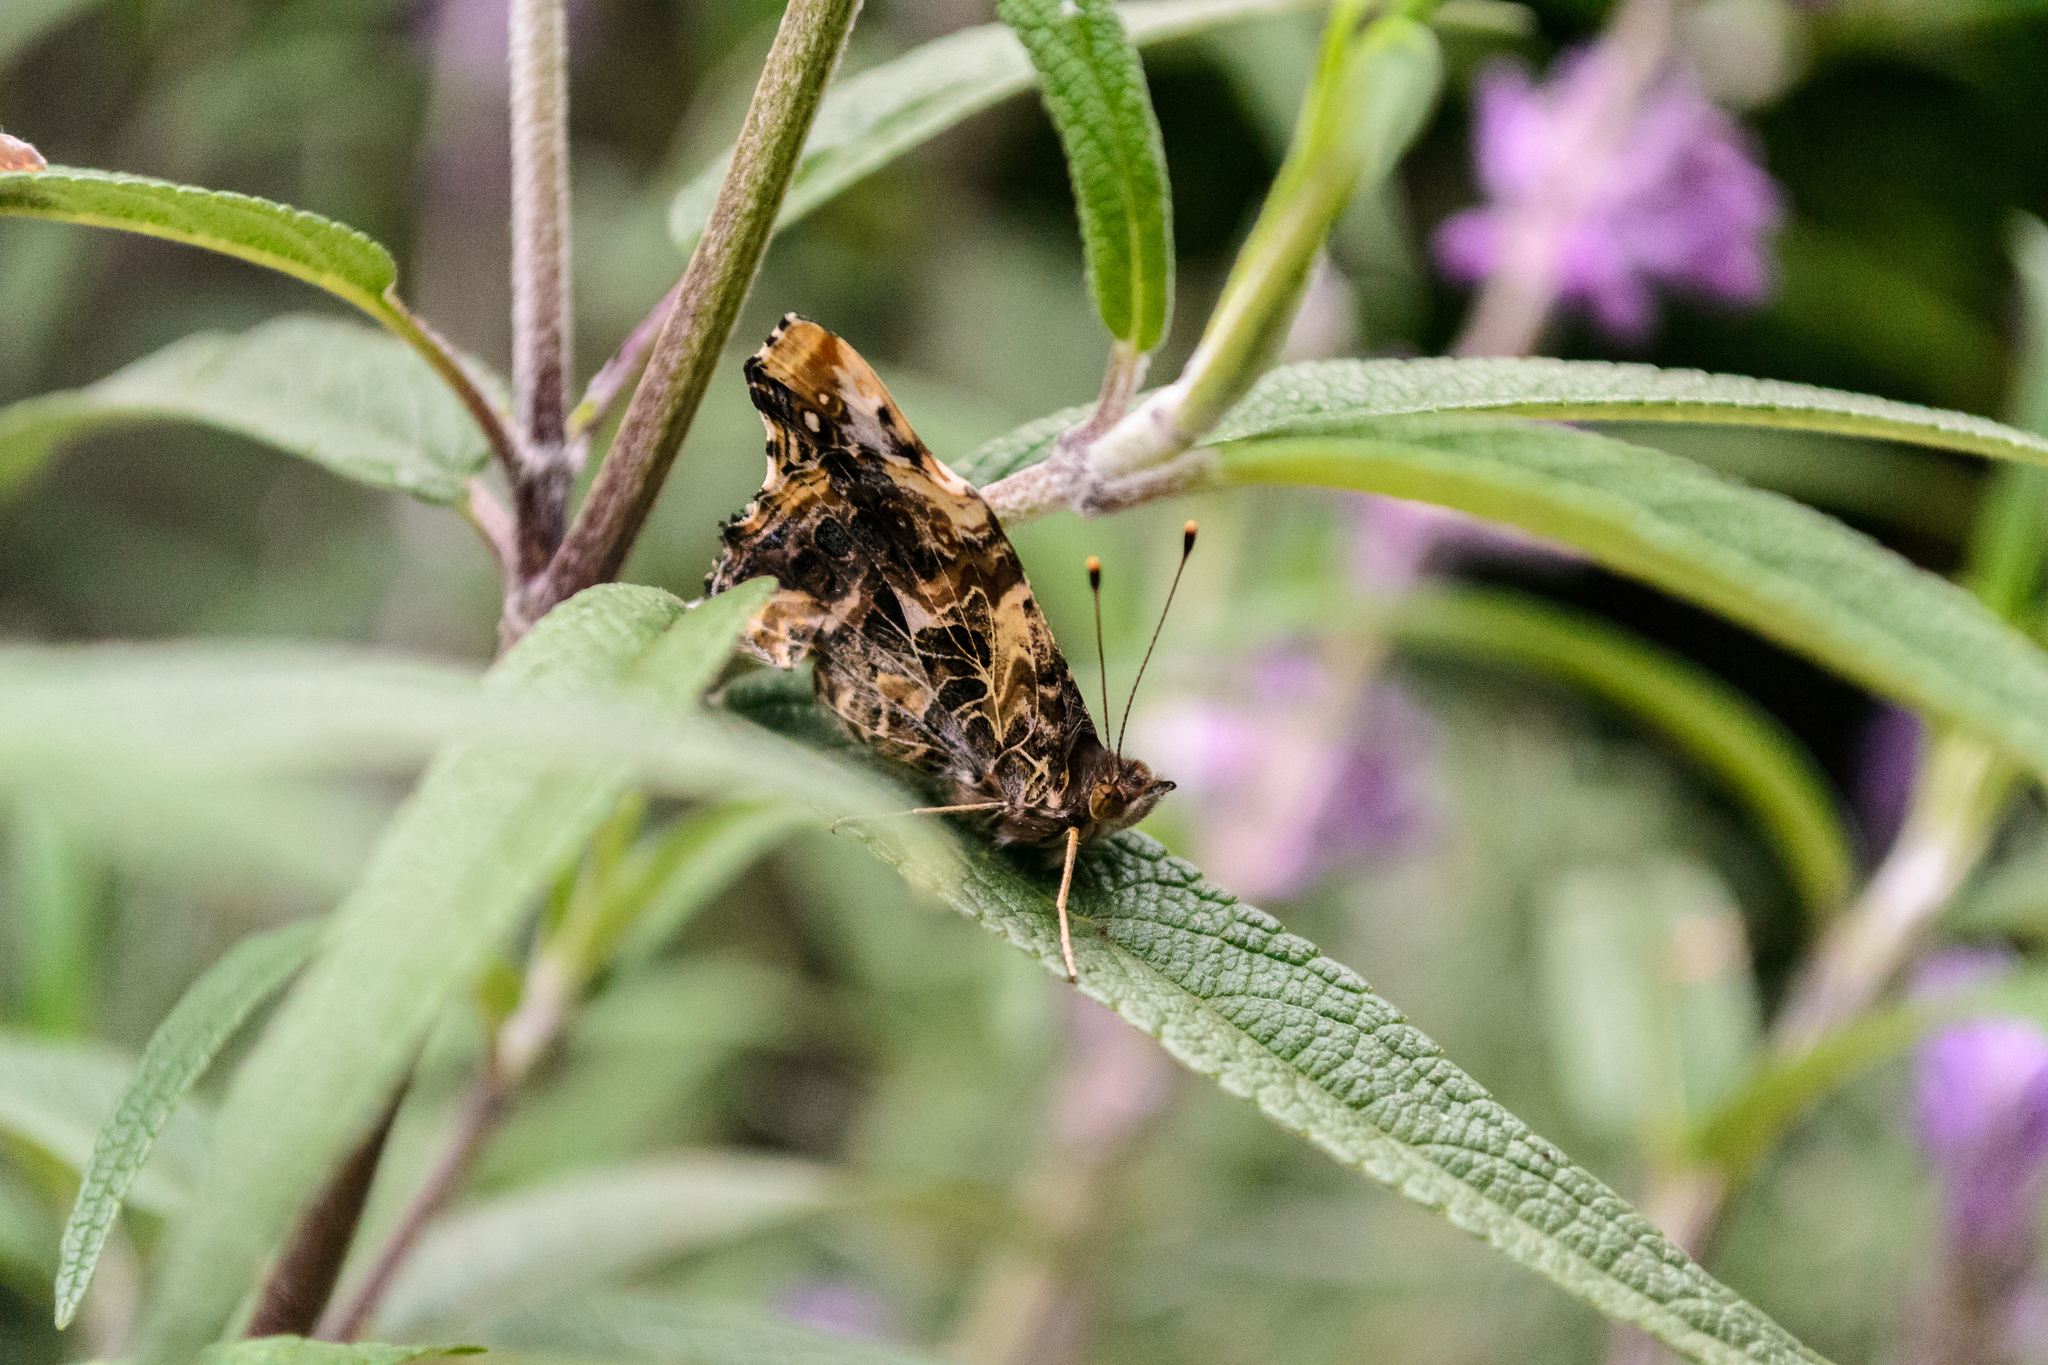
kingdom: Animalia
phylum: Arthropoda
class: Insecta
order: Lepidoptera
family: Nymphalidae
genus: Vanessa
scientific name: Vanessa annabella
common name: West coast lady
